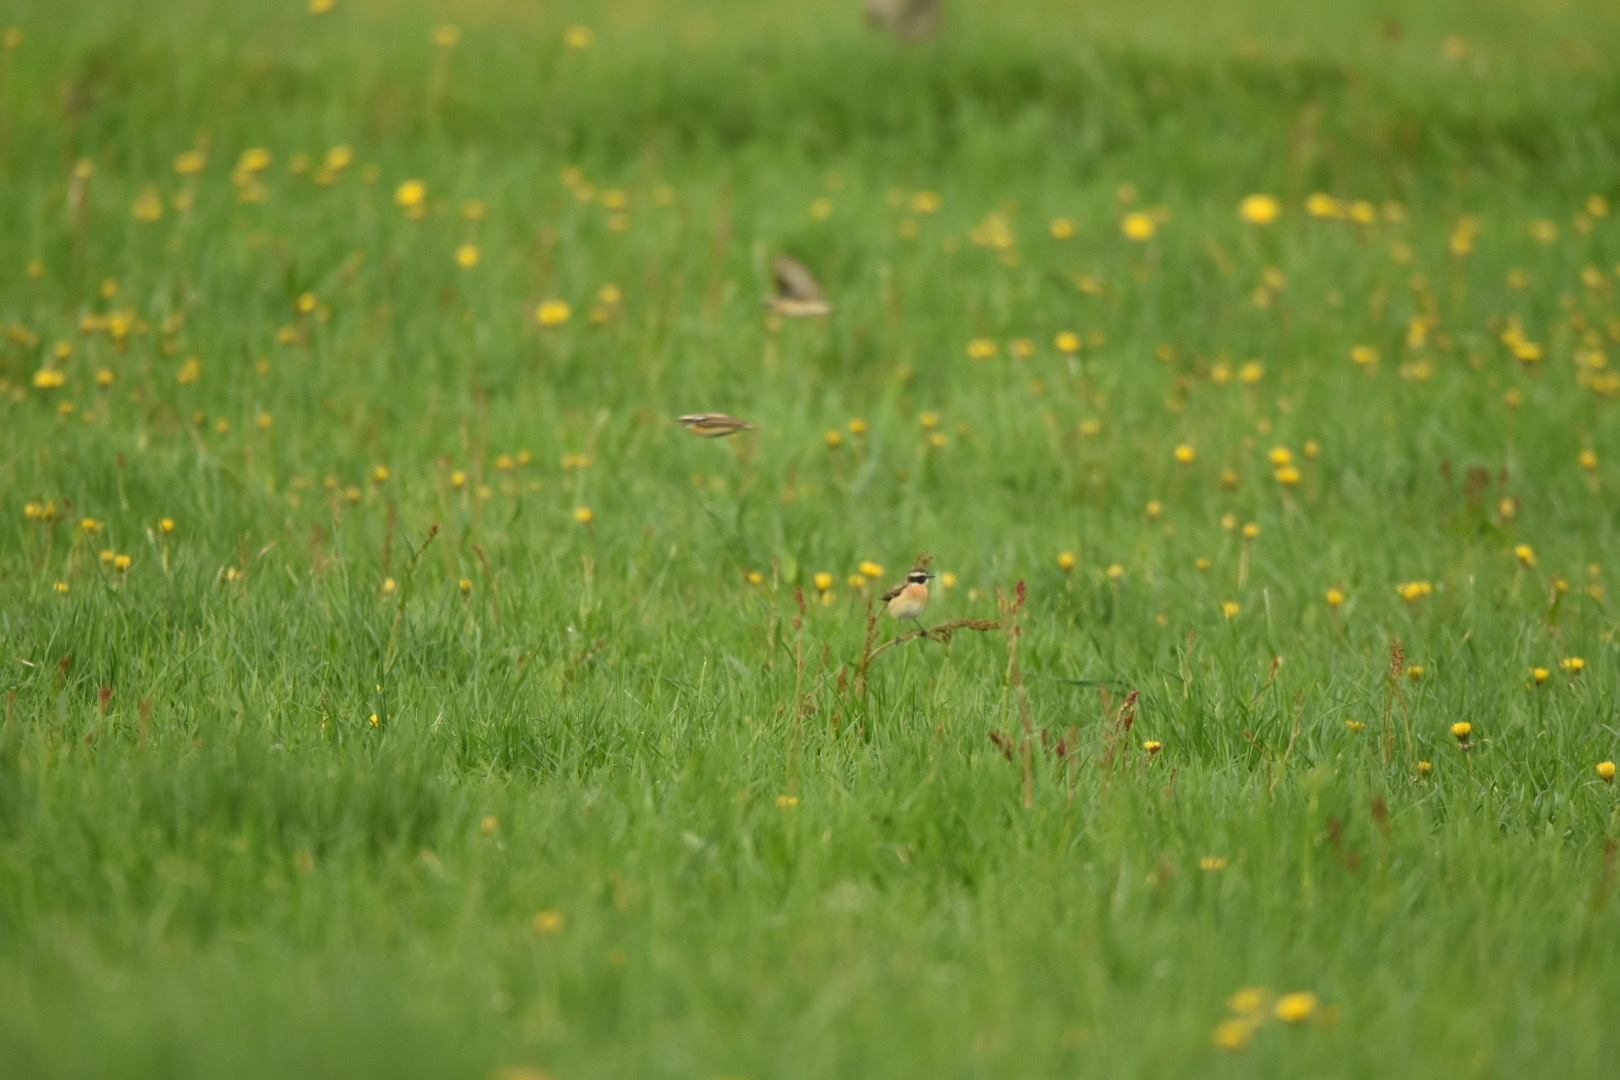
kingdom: Animalia
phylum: Chordata
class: Aves
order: Passeriformes
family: Muscicapidae
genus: Saxicola
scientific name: Saxicola rubetra
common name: Whinchat
